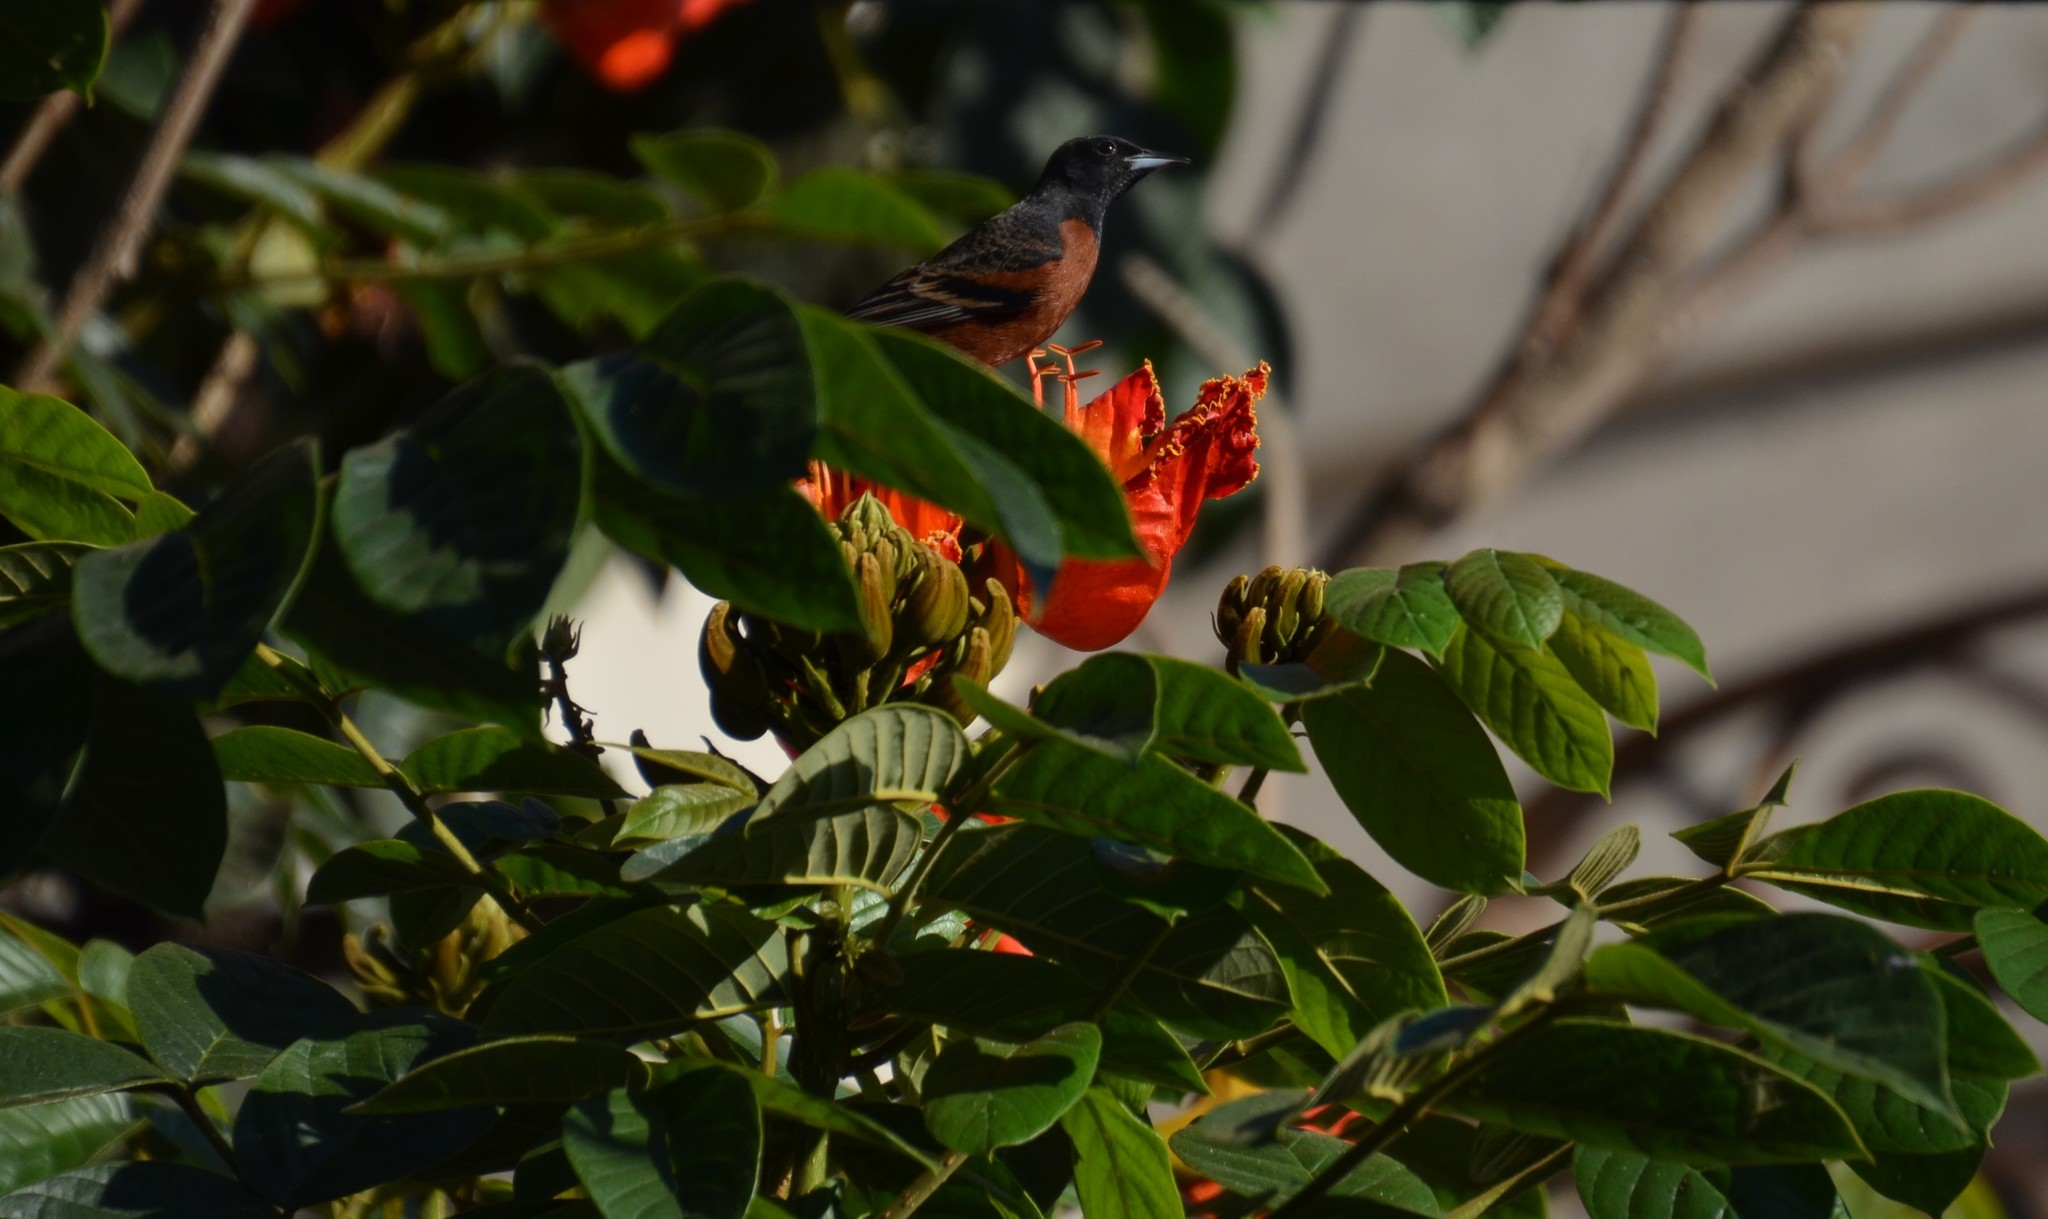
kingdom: Animalia
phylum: Chordata
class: Aves
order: Passeriformes
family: Icteridae
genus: Icterus
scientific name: Icterus spurius
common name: Orchard oriole
